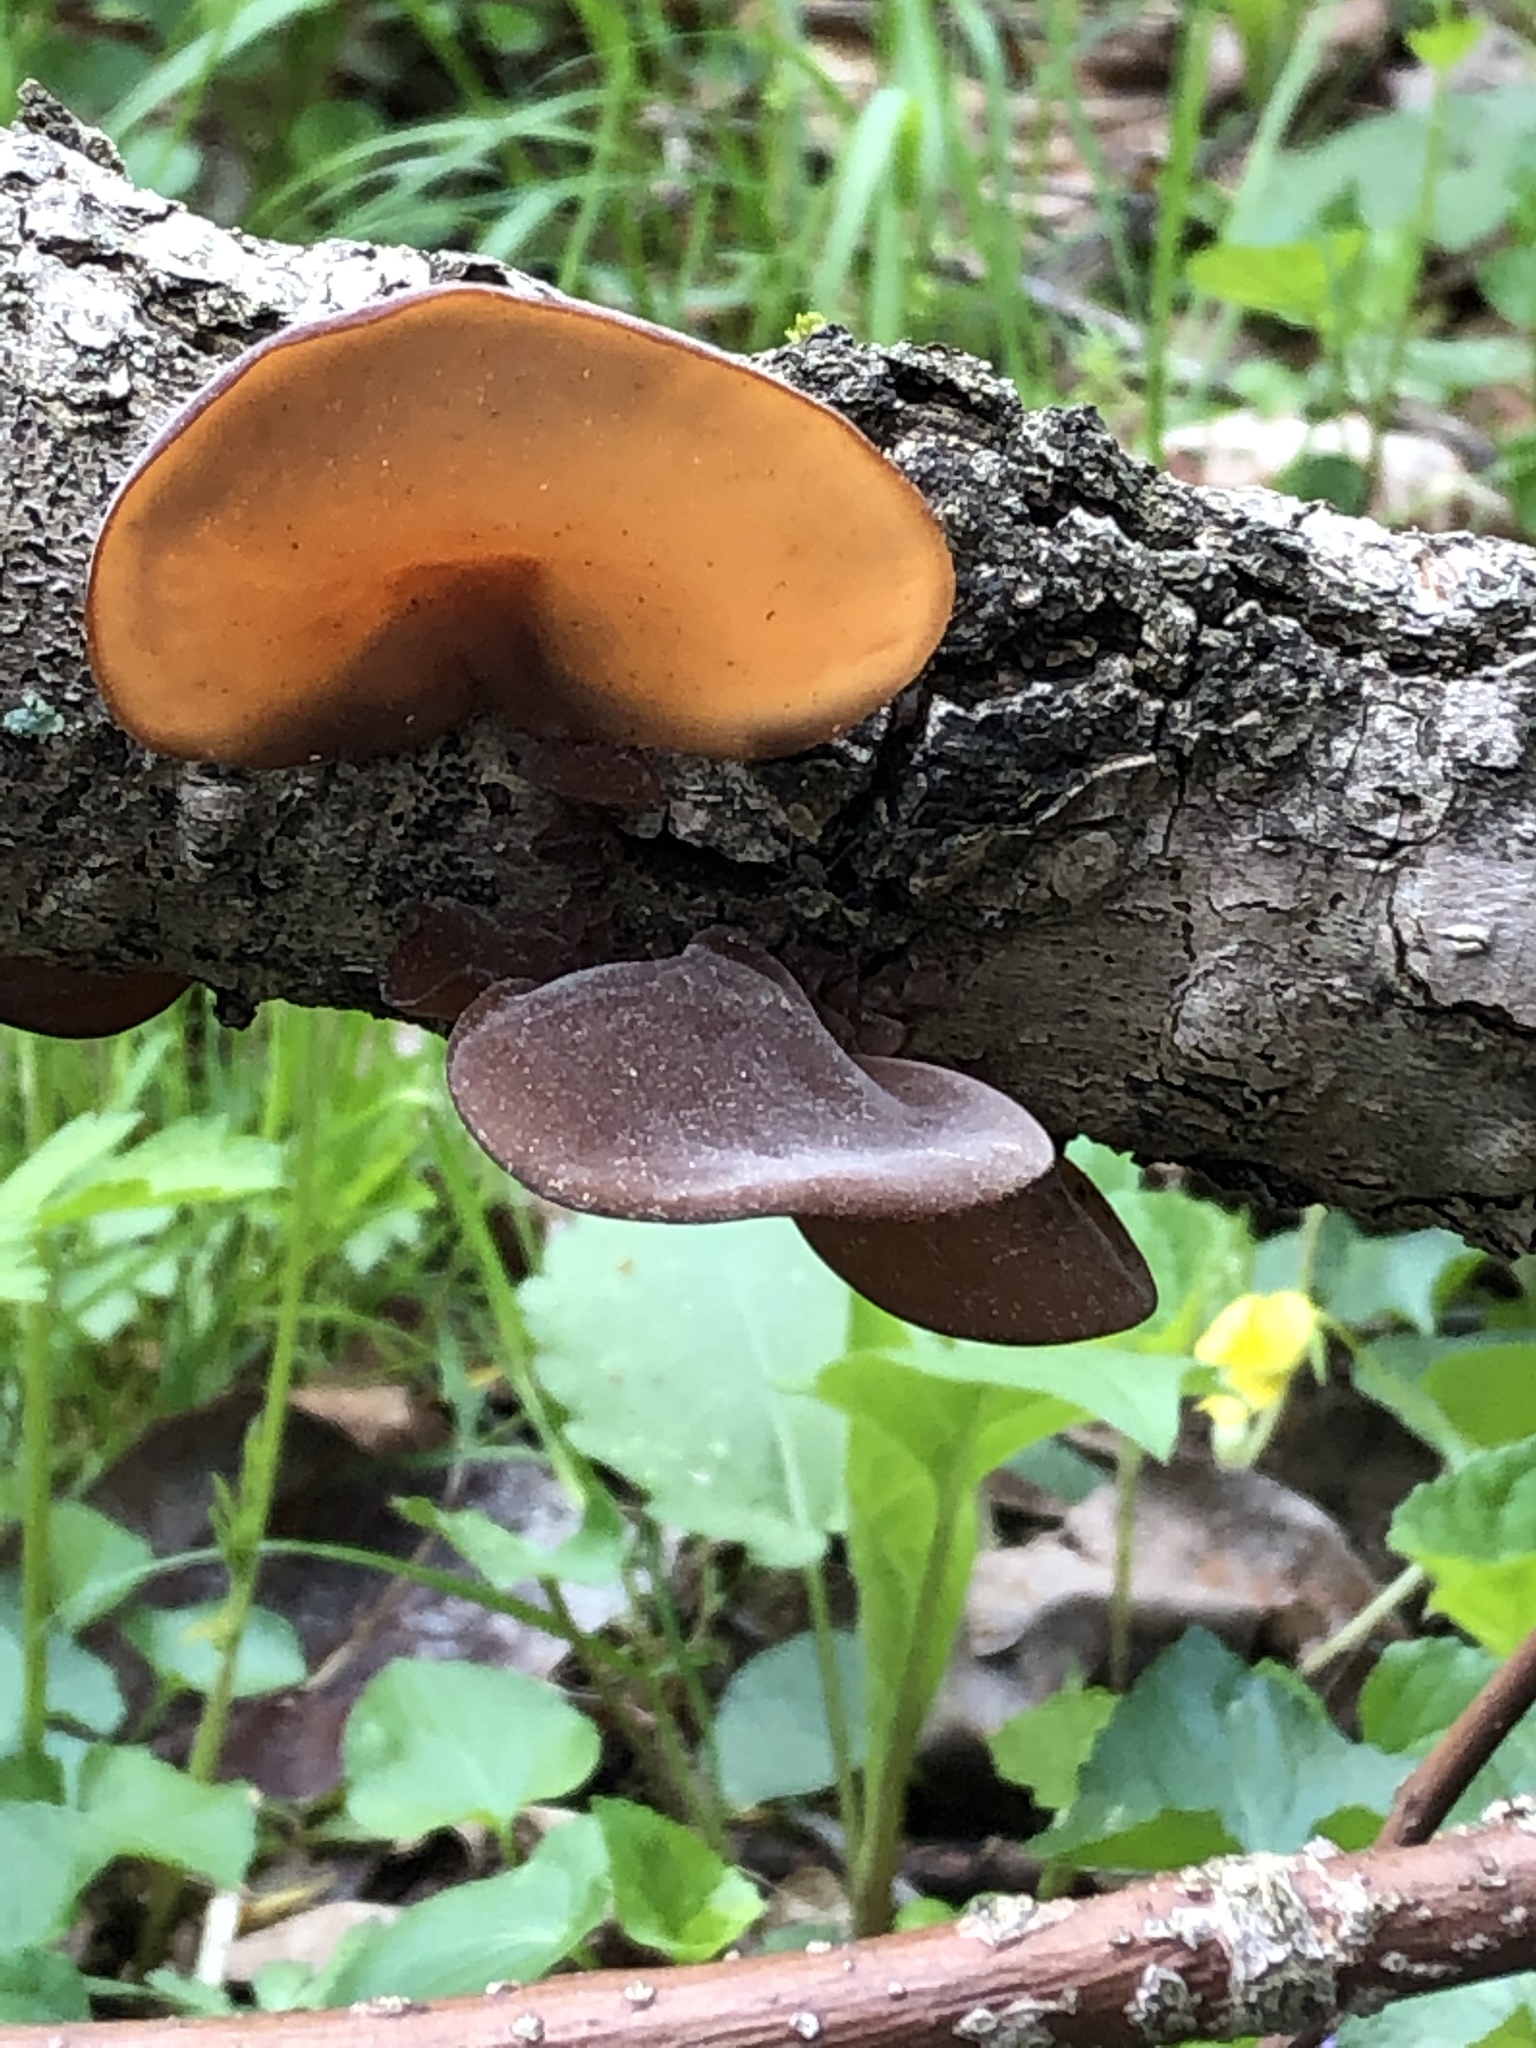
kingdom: Fungi
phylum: Basidiomycota
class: Agaricomycetes
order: Auriculariales
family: Auriculariaceae
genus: Auricularia
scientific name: Auricularia angiospermarum
